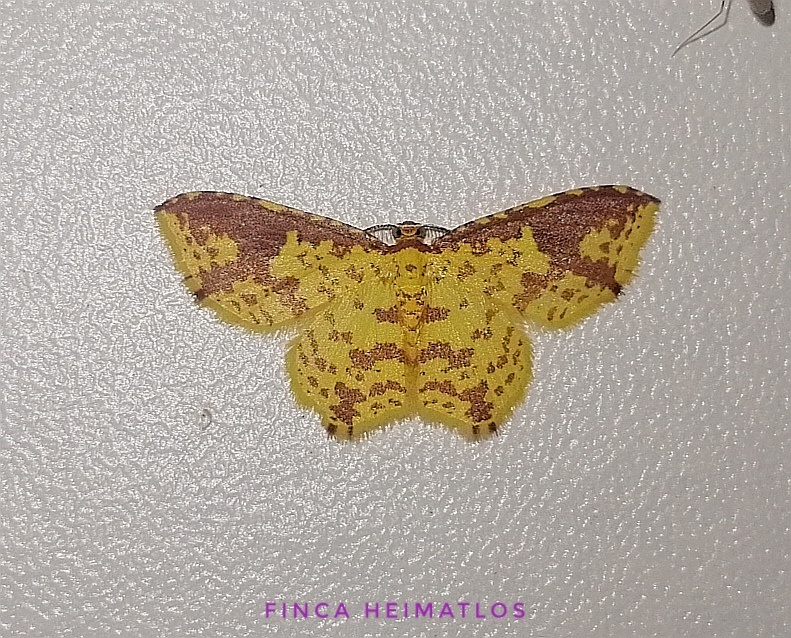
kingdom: Animalia
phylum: Arthropoda
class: Insecta
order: Lepidoptera
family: Geometridae
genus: Eois
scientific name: Eois heliadaria
